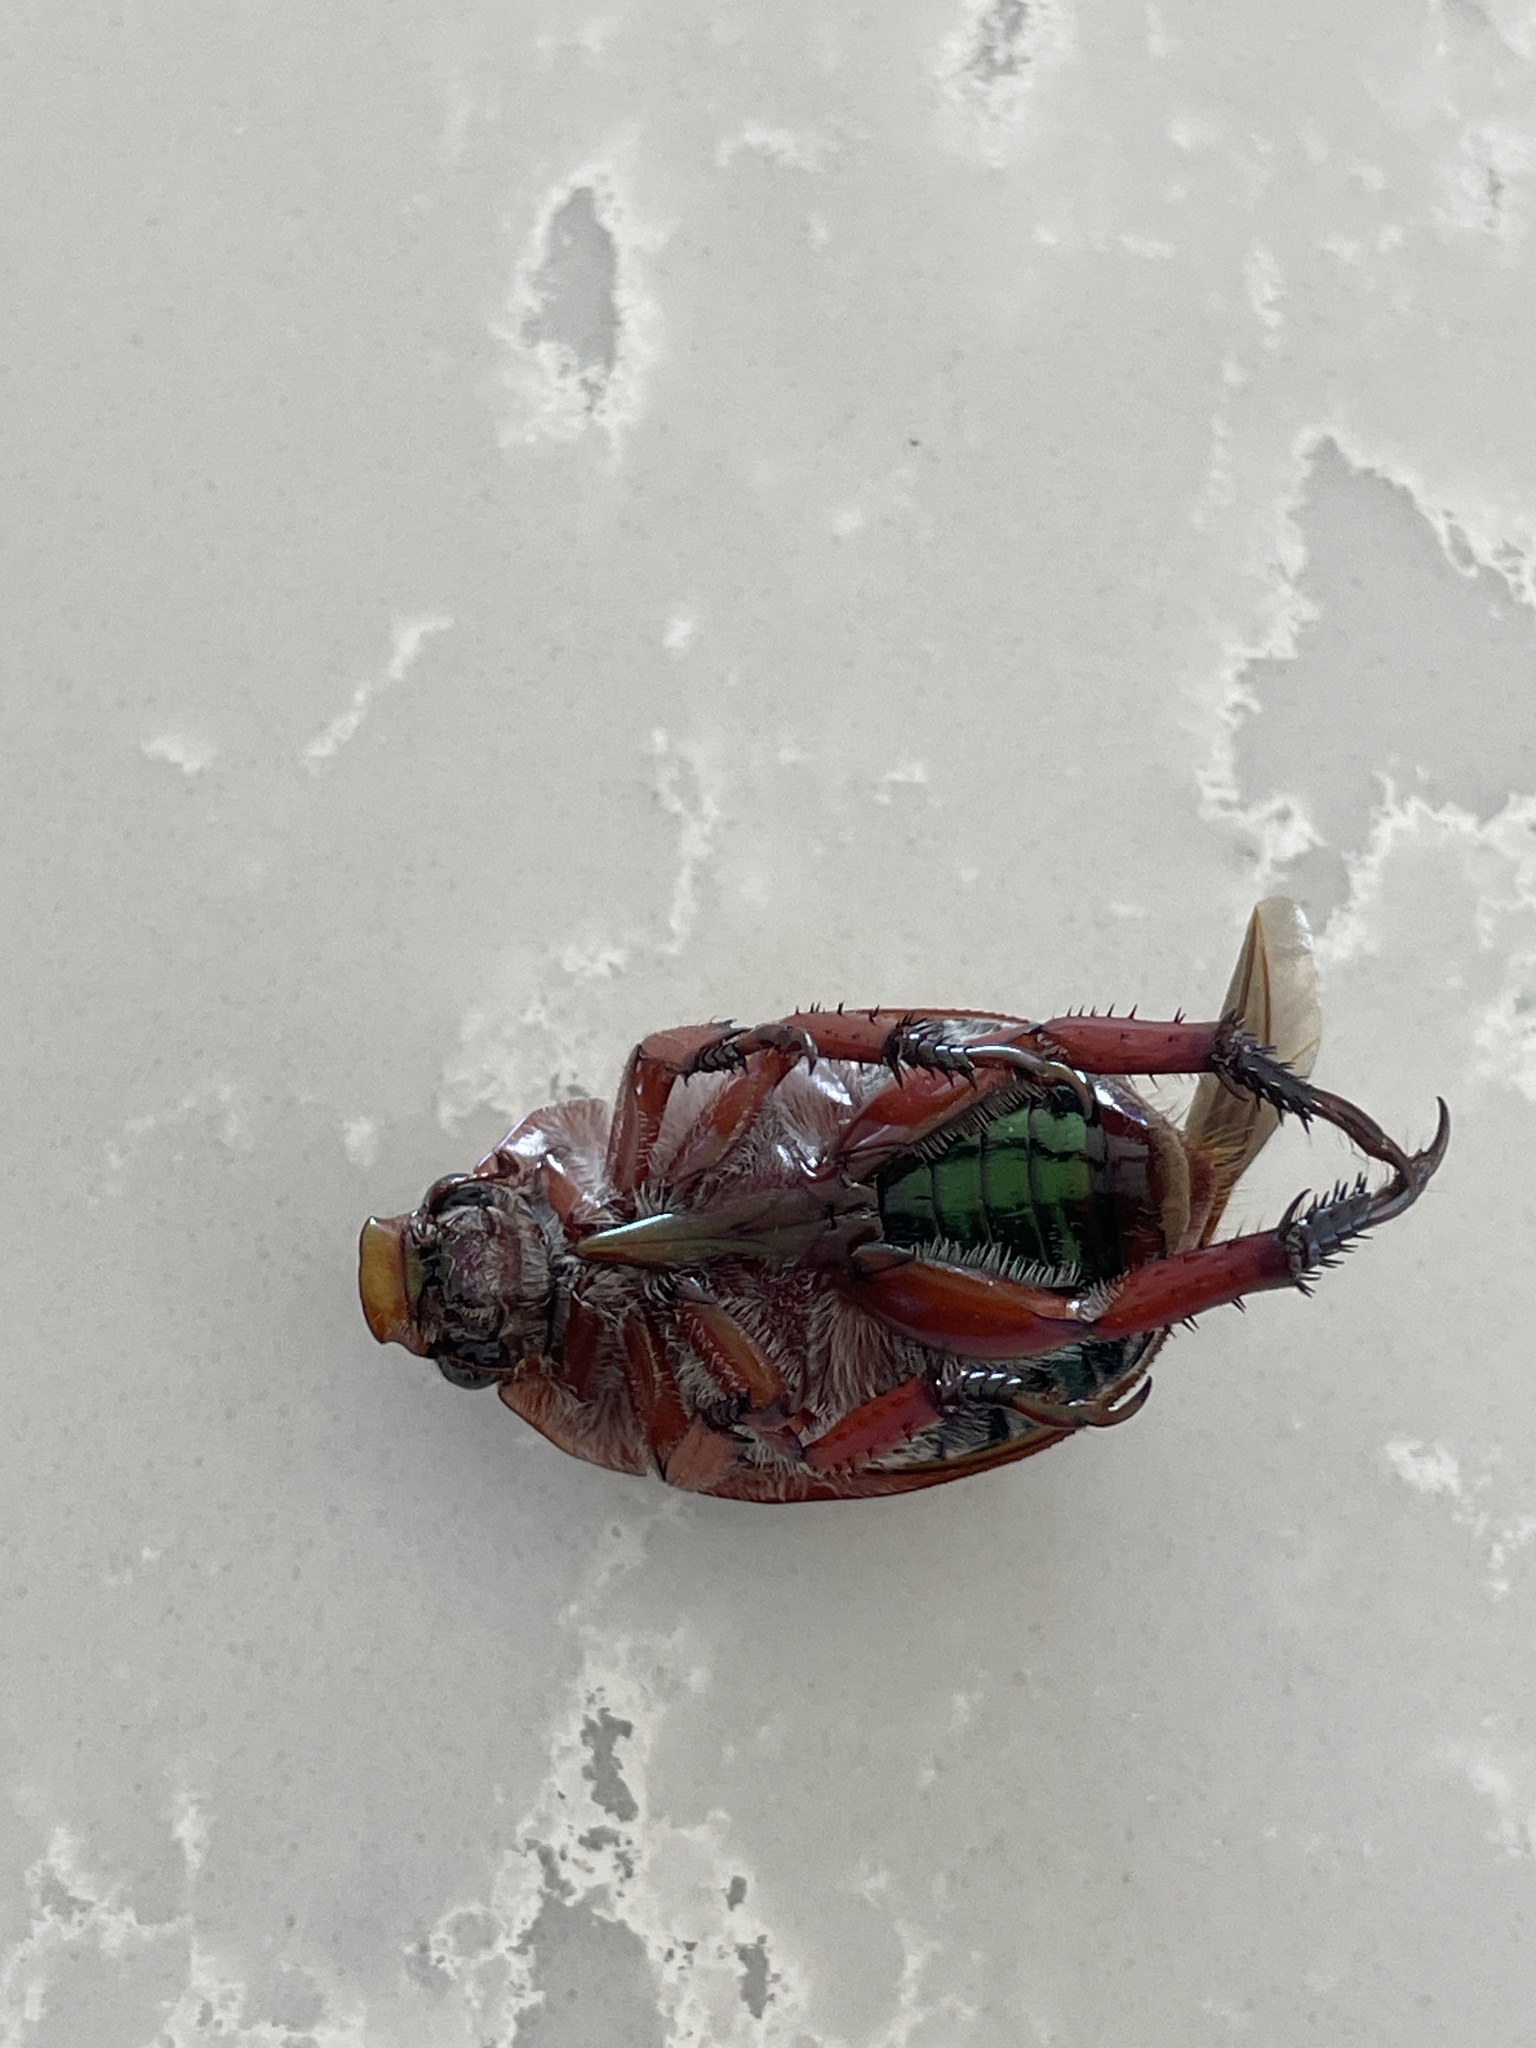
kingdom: Animalia
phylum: Arthropoda
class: Insecta
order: Coleoptera
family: Scarabaeidae
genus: Anoplognathus
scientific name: Anoplognathus olivieri
